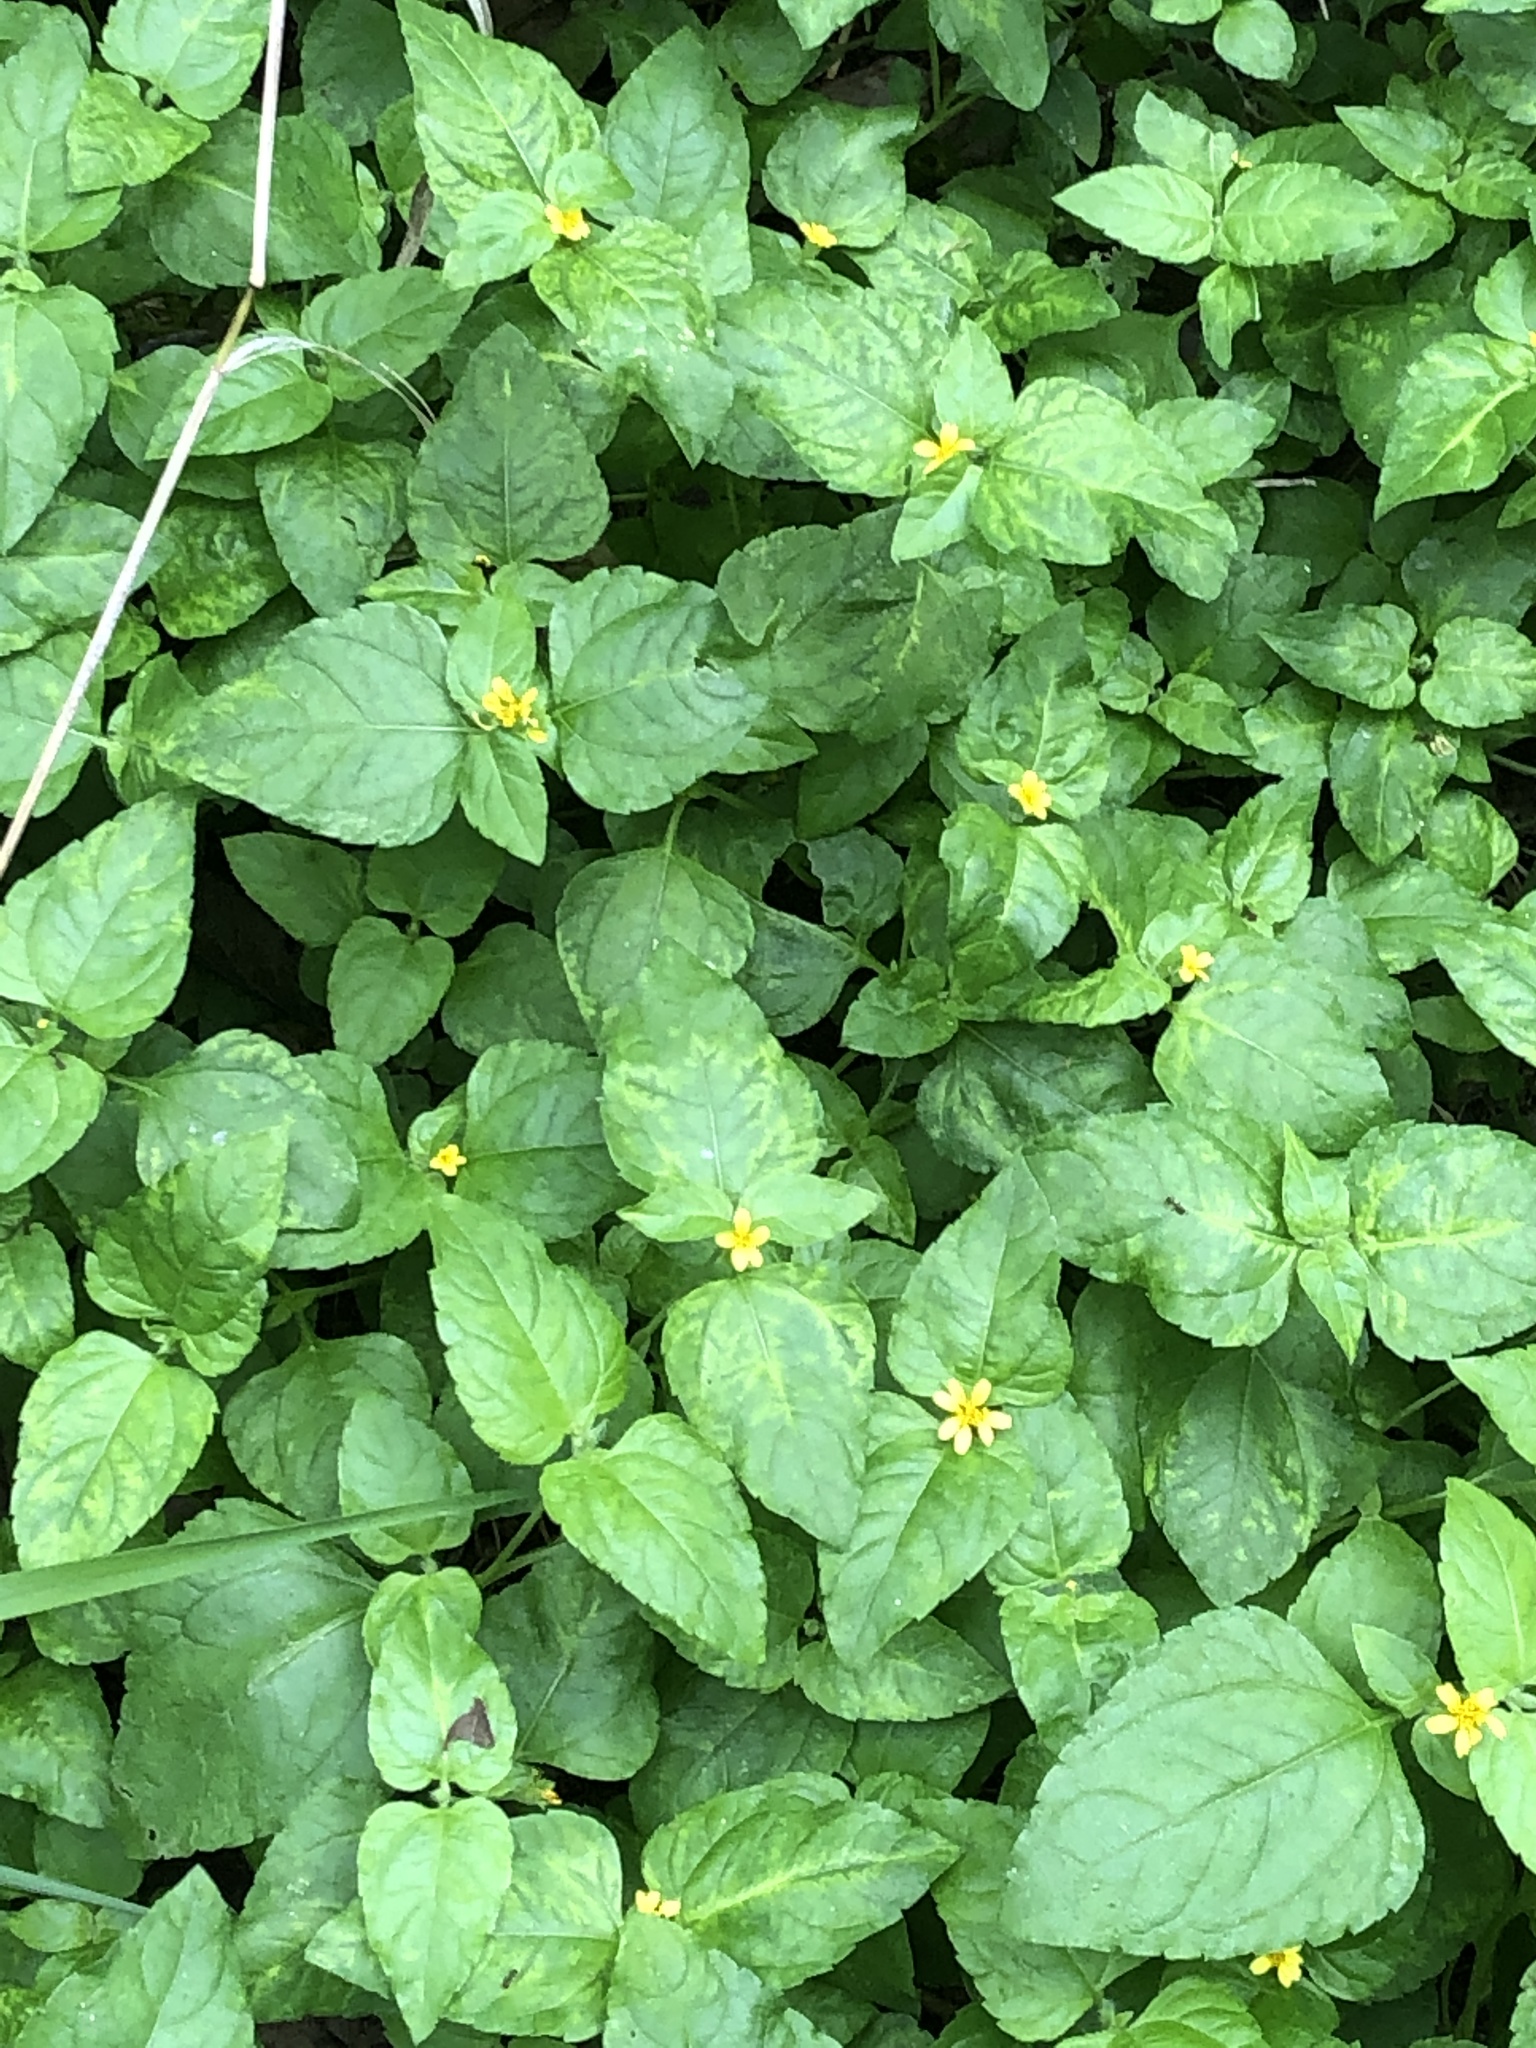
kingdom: Plantae
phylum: Tracheophyta
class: Magnoliopsida
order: Asterales
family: Asteraceae
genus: Calyptocarpus
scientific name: Calyptocarpus vialis
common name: Straggler daisy
